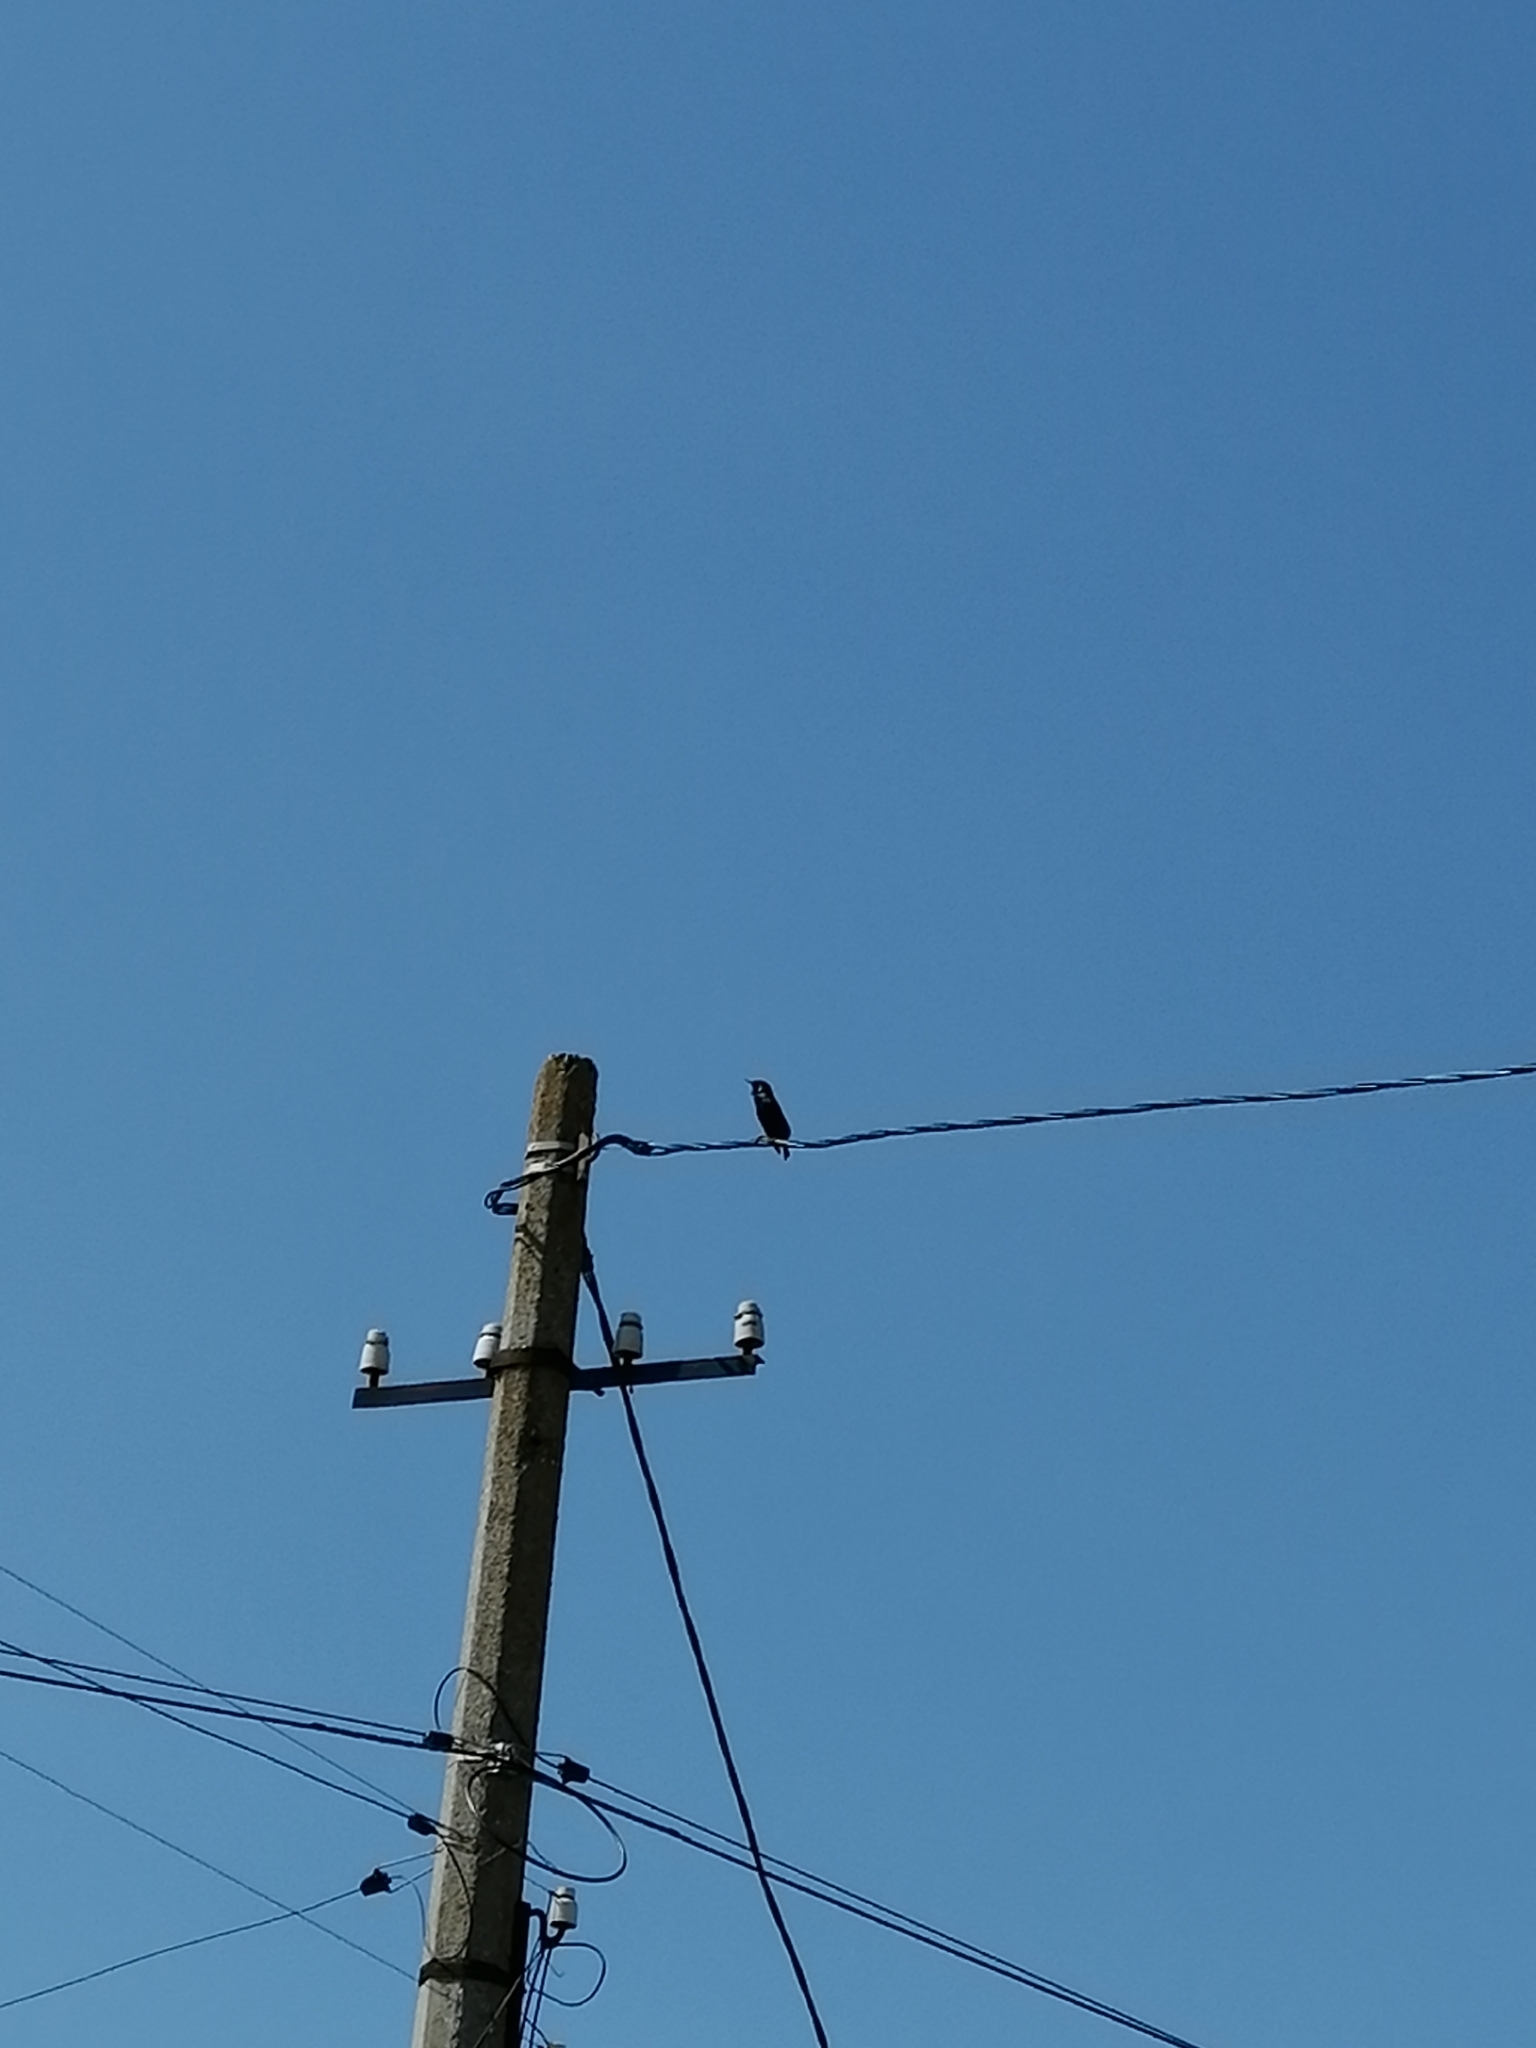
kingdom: Animalia
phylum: Chordata
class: Aves
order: Passeriformes
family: Sturnidae
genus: Sturnus
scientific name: Sturnus vulgaris
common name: Common starling
